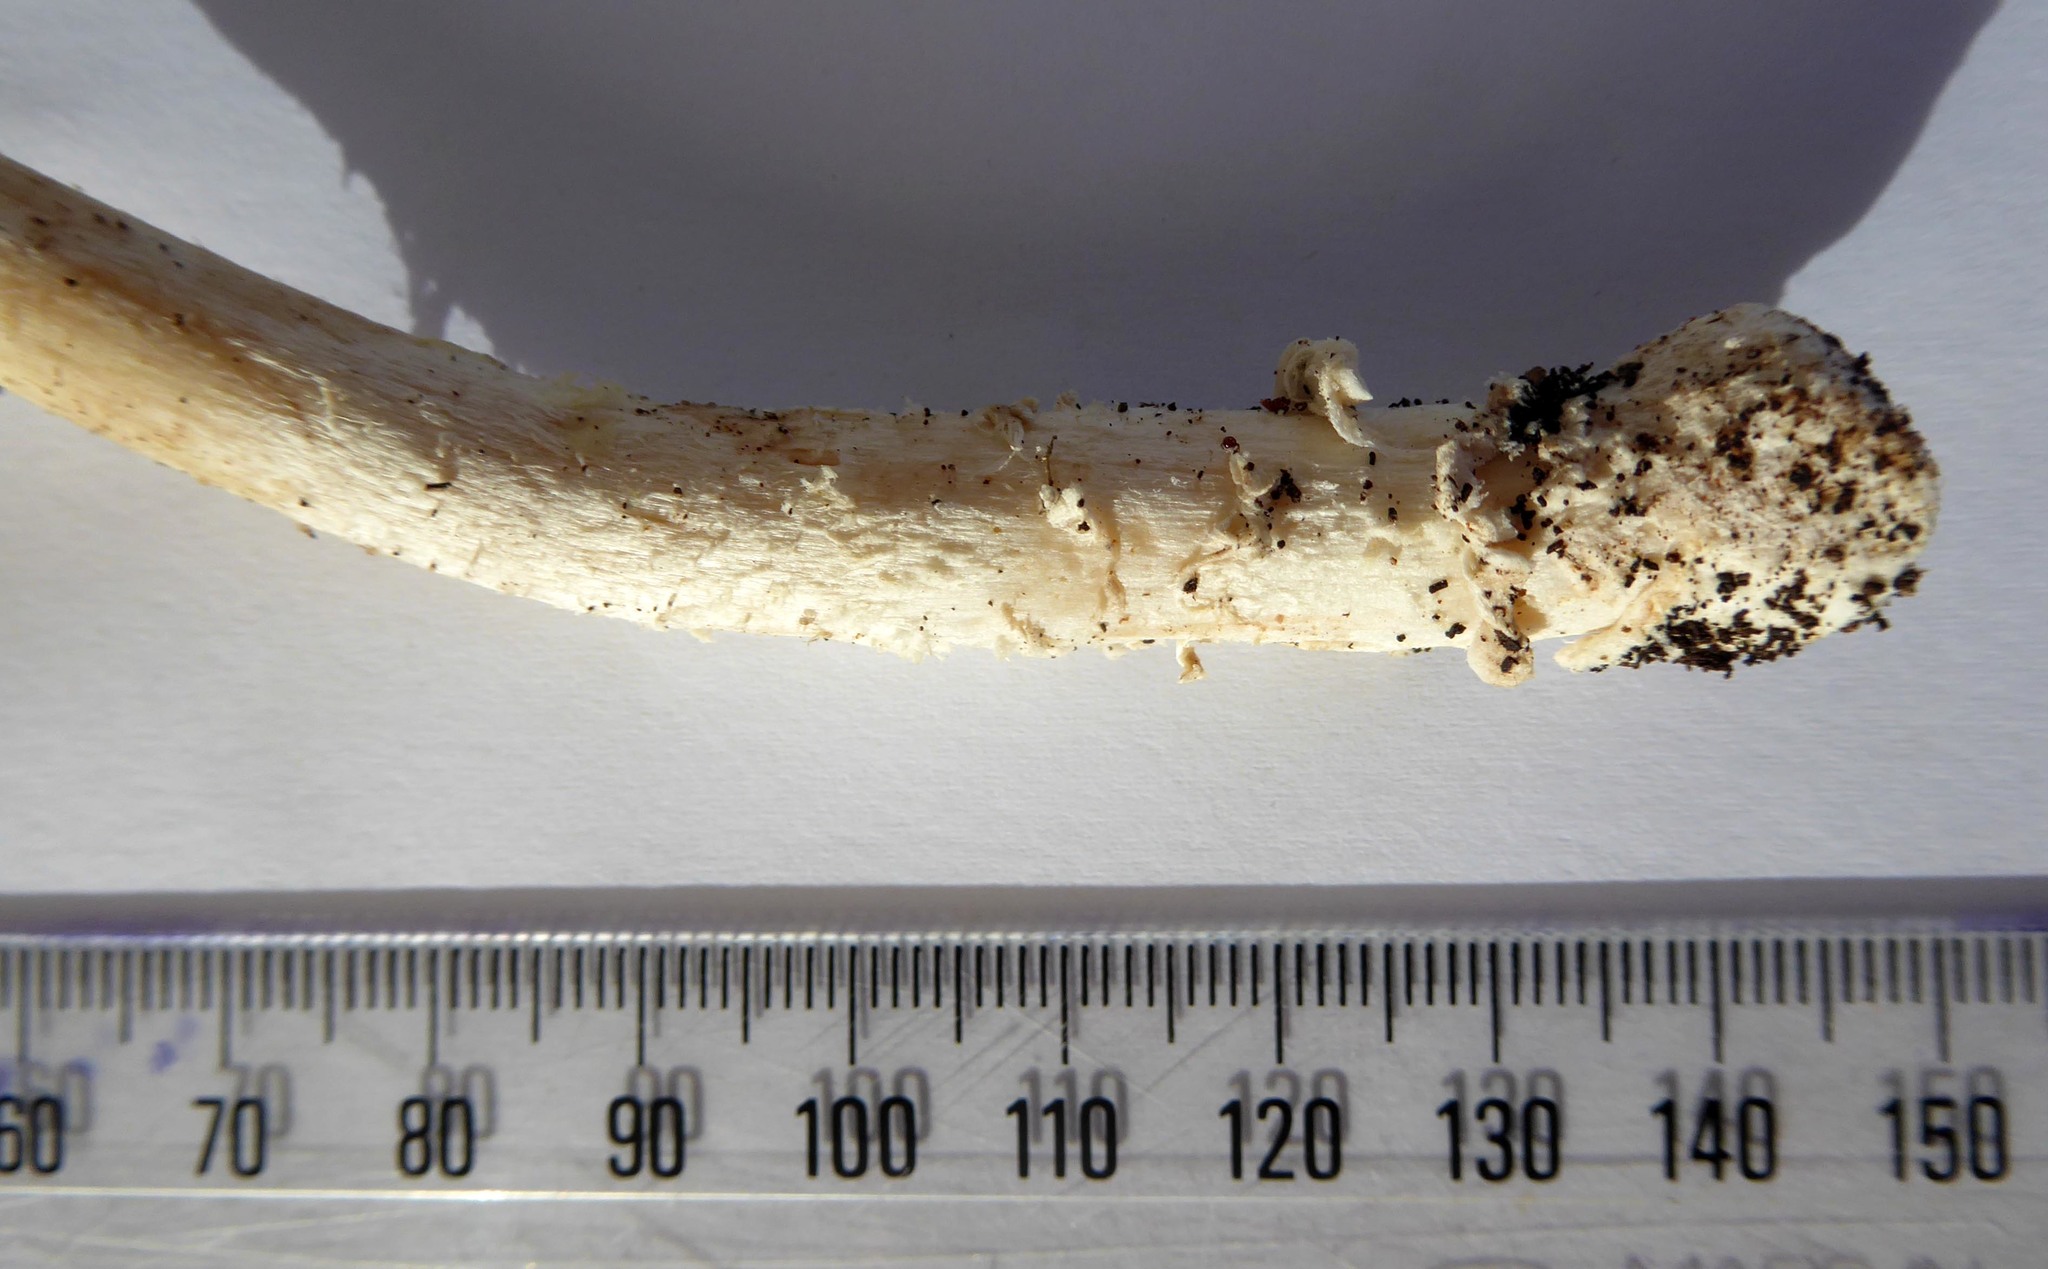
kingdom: Fungi
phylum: Basidiomycota
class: Agaricomycetes
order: Agaricales
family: Amanitaceae
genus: Amanita
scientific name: Amanita muscaria
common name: Fly agaric
